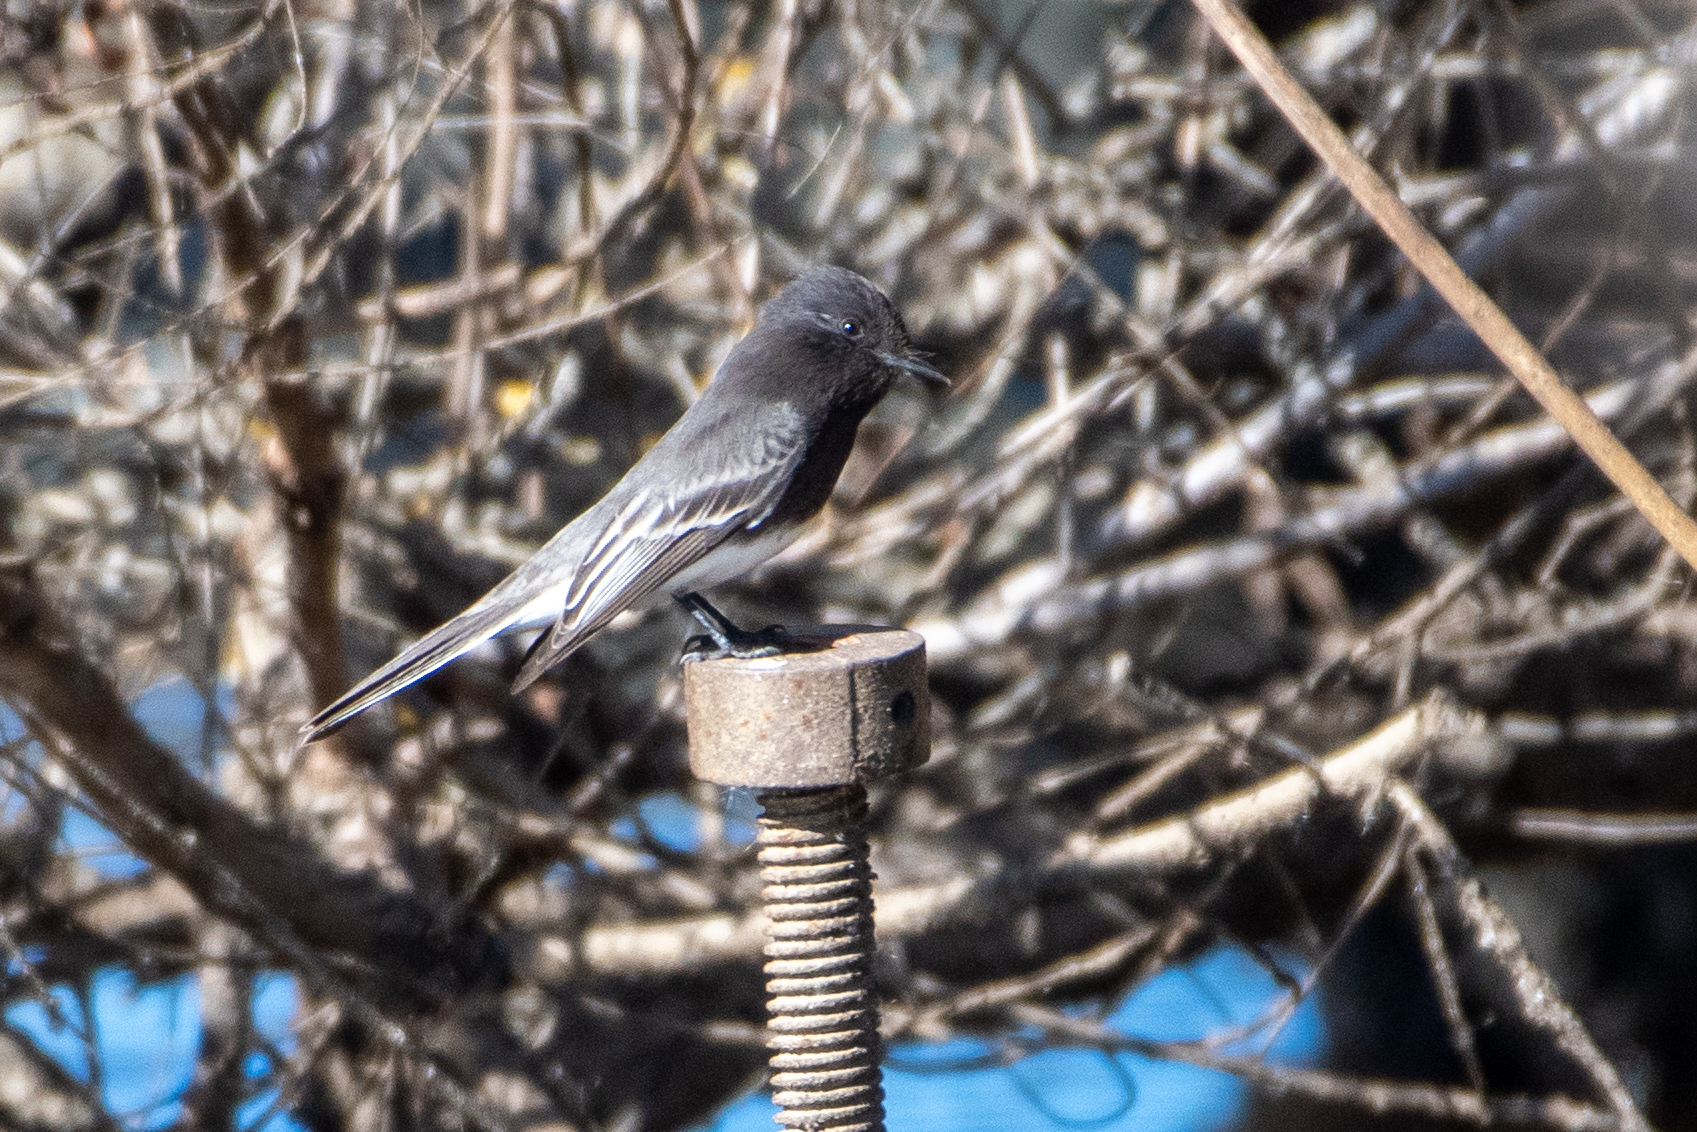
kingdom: Animalia
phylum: Chordata
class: Aves
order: Passeriformes
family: Tyrannidae
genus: Sayornis
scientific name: Sayornis nigricans
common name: Black phoebe
